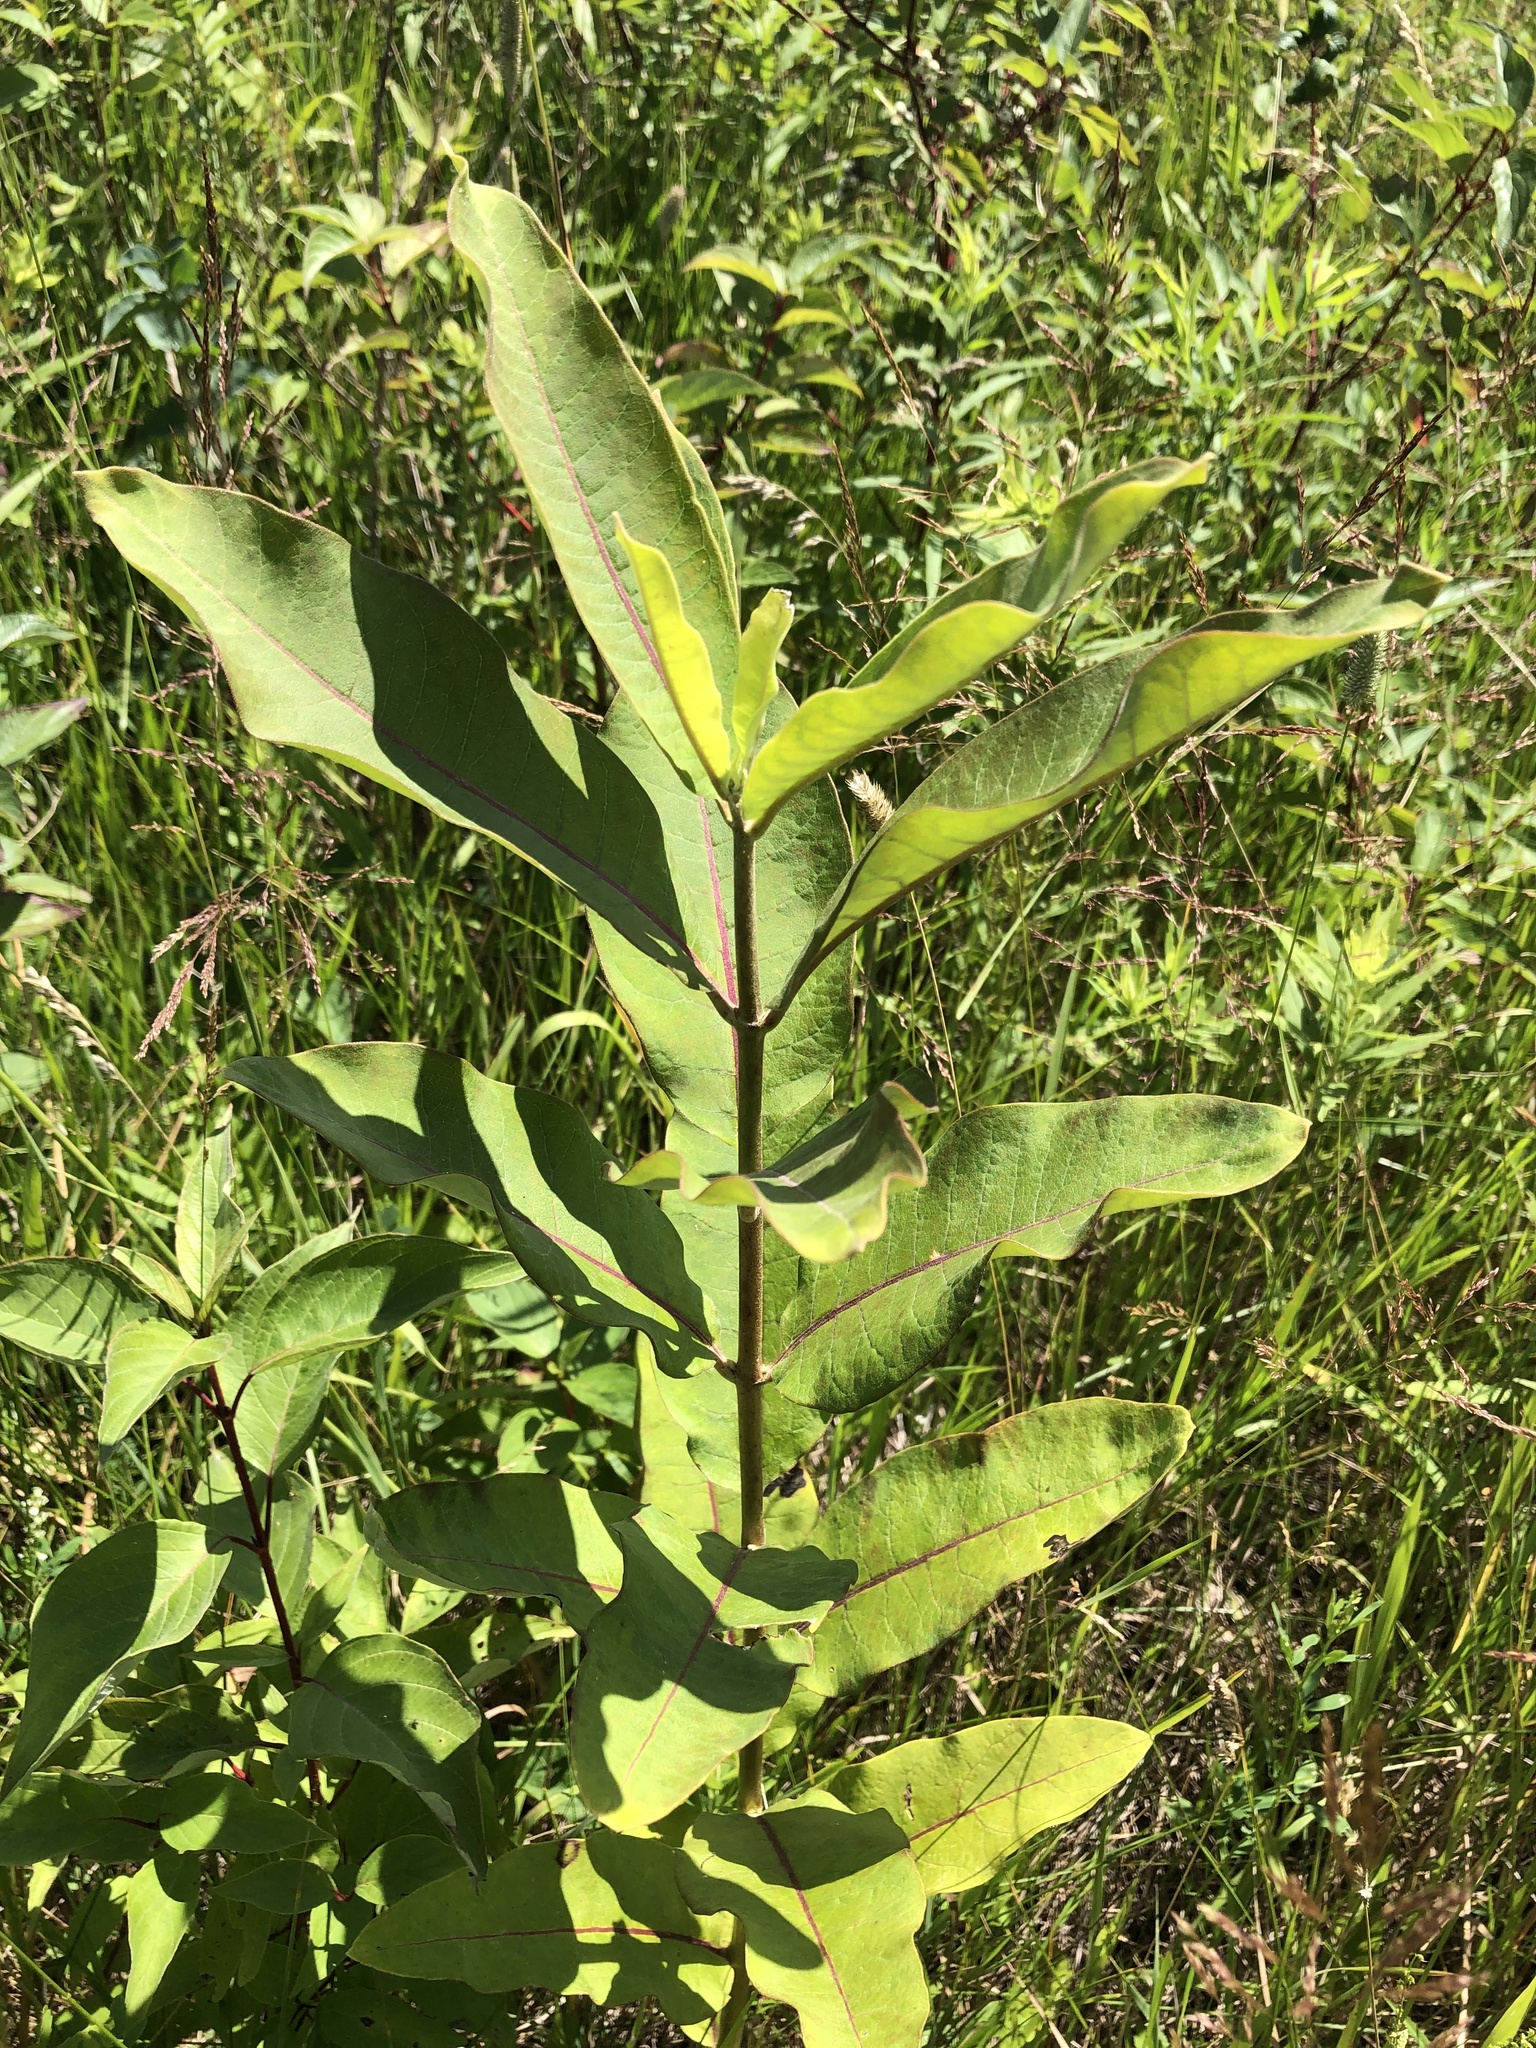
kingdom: Plantae
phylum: Tracheophyta
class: Magnoliopsida
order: Gentianales
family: Apocynaceae
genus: Asclepias
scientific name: Asclepias syriaca
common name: Common milkweed
